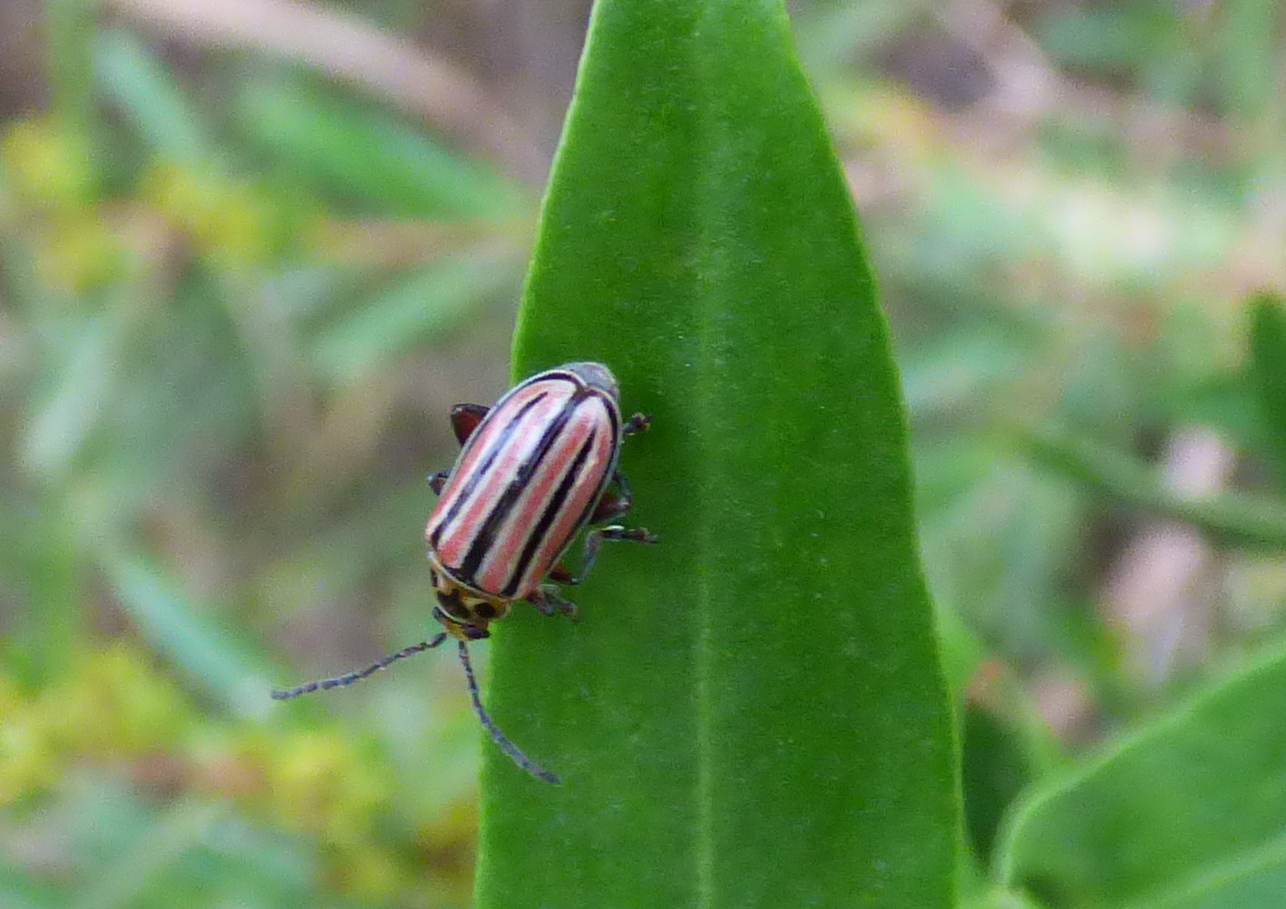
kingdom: Animalia
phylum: Arthropoda
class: Insecta
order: Coleoptera
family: Chrysomelidae
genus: Disonycha
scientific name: Disonycha
